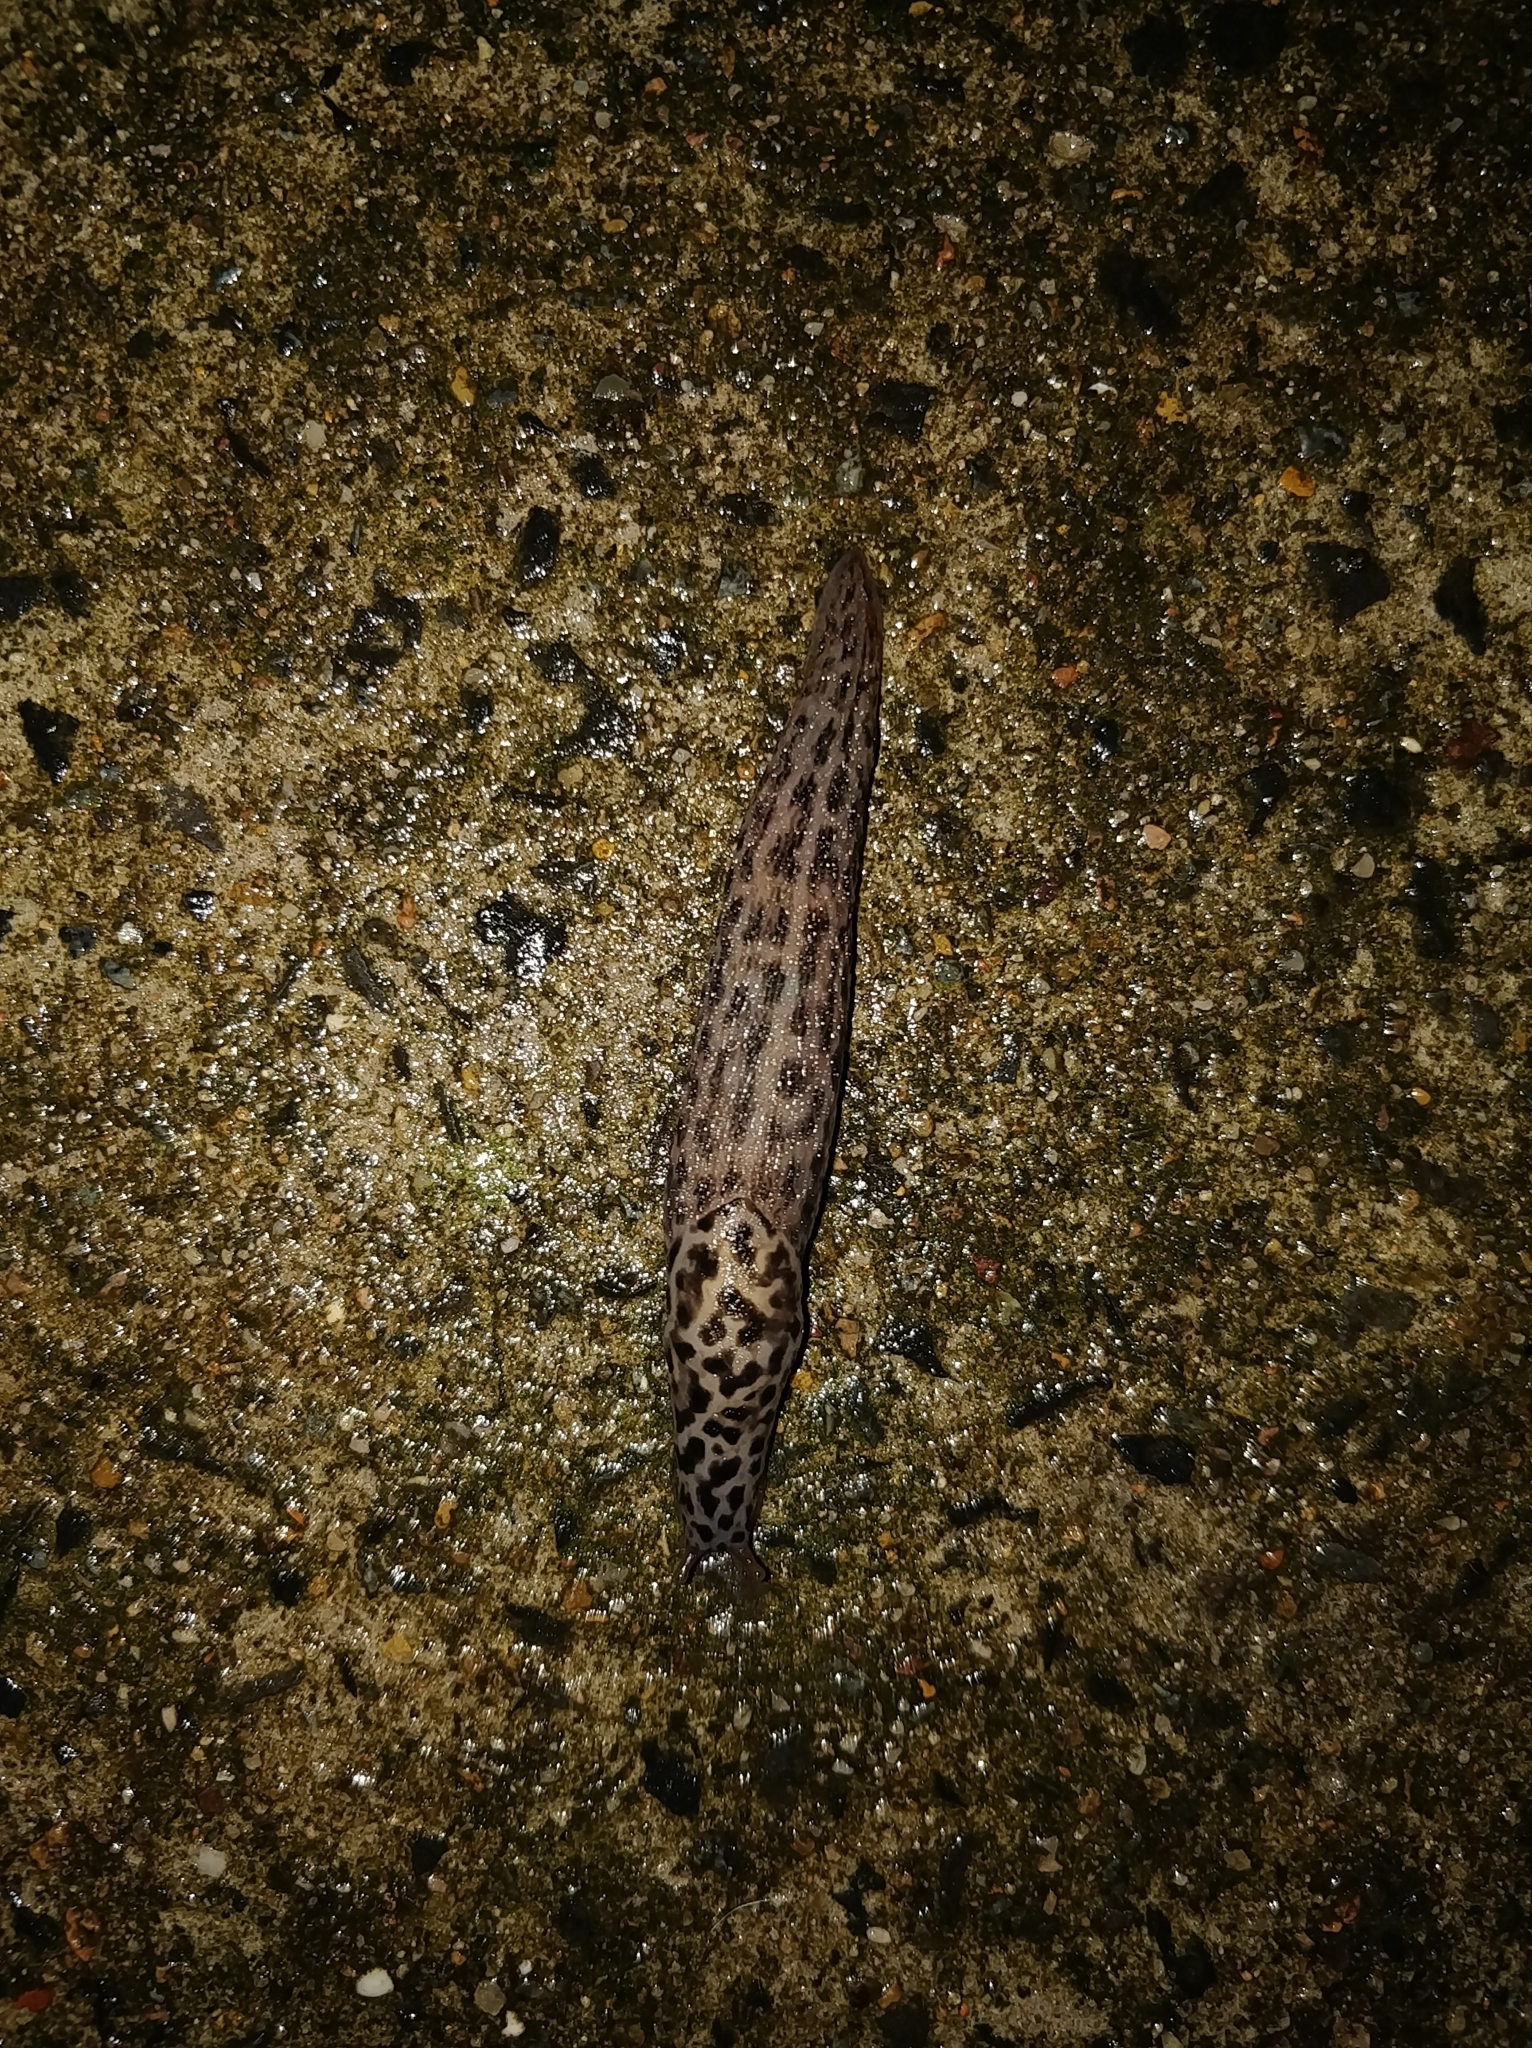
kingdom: Animalia
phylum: Mollusca
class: Gastropoda
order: Stylommatophora
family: Limacidae
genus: Limax
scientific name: Limax maximus
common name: Great grey slug
